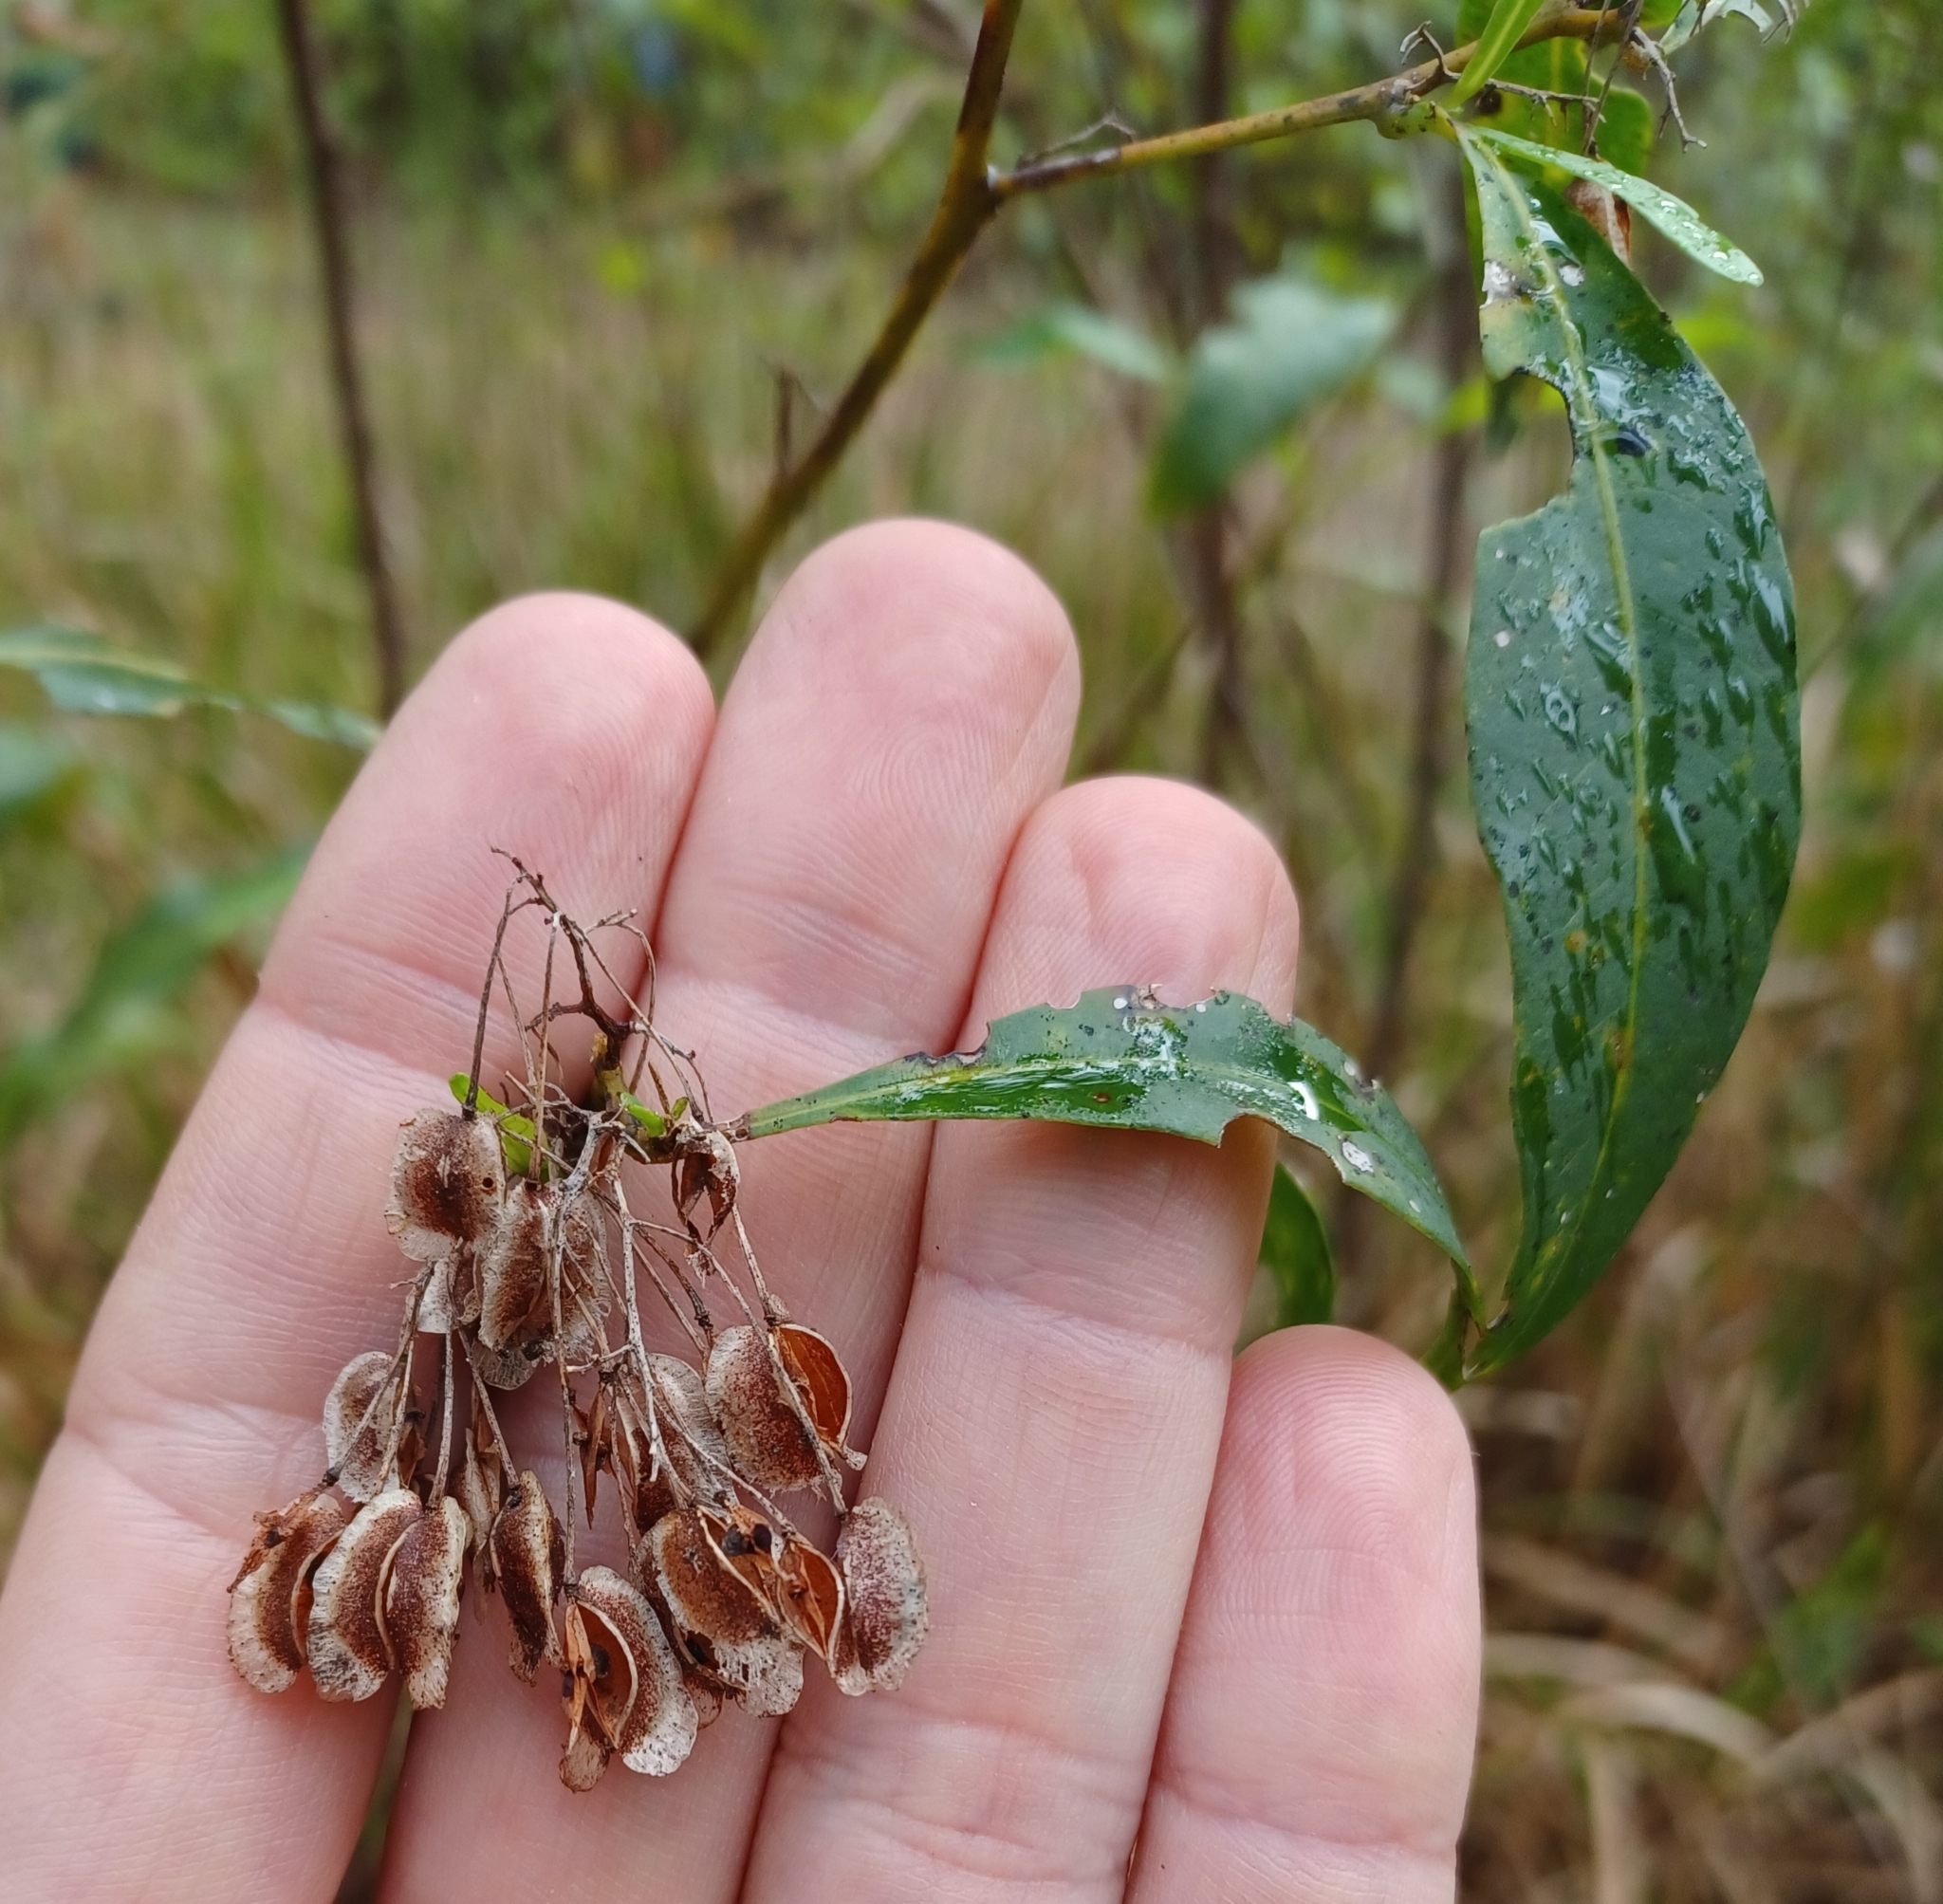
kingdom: Plantae
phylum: Tracheophyta
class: Magnoliopsida
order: Sapindales
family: Sapindaceae
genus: Dodonaea
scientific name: Dodonaea triquetra
